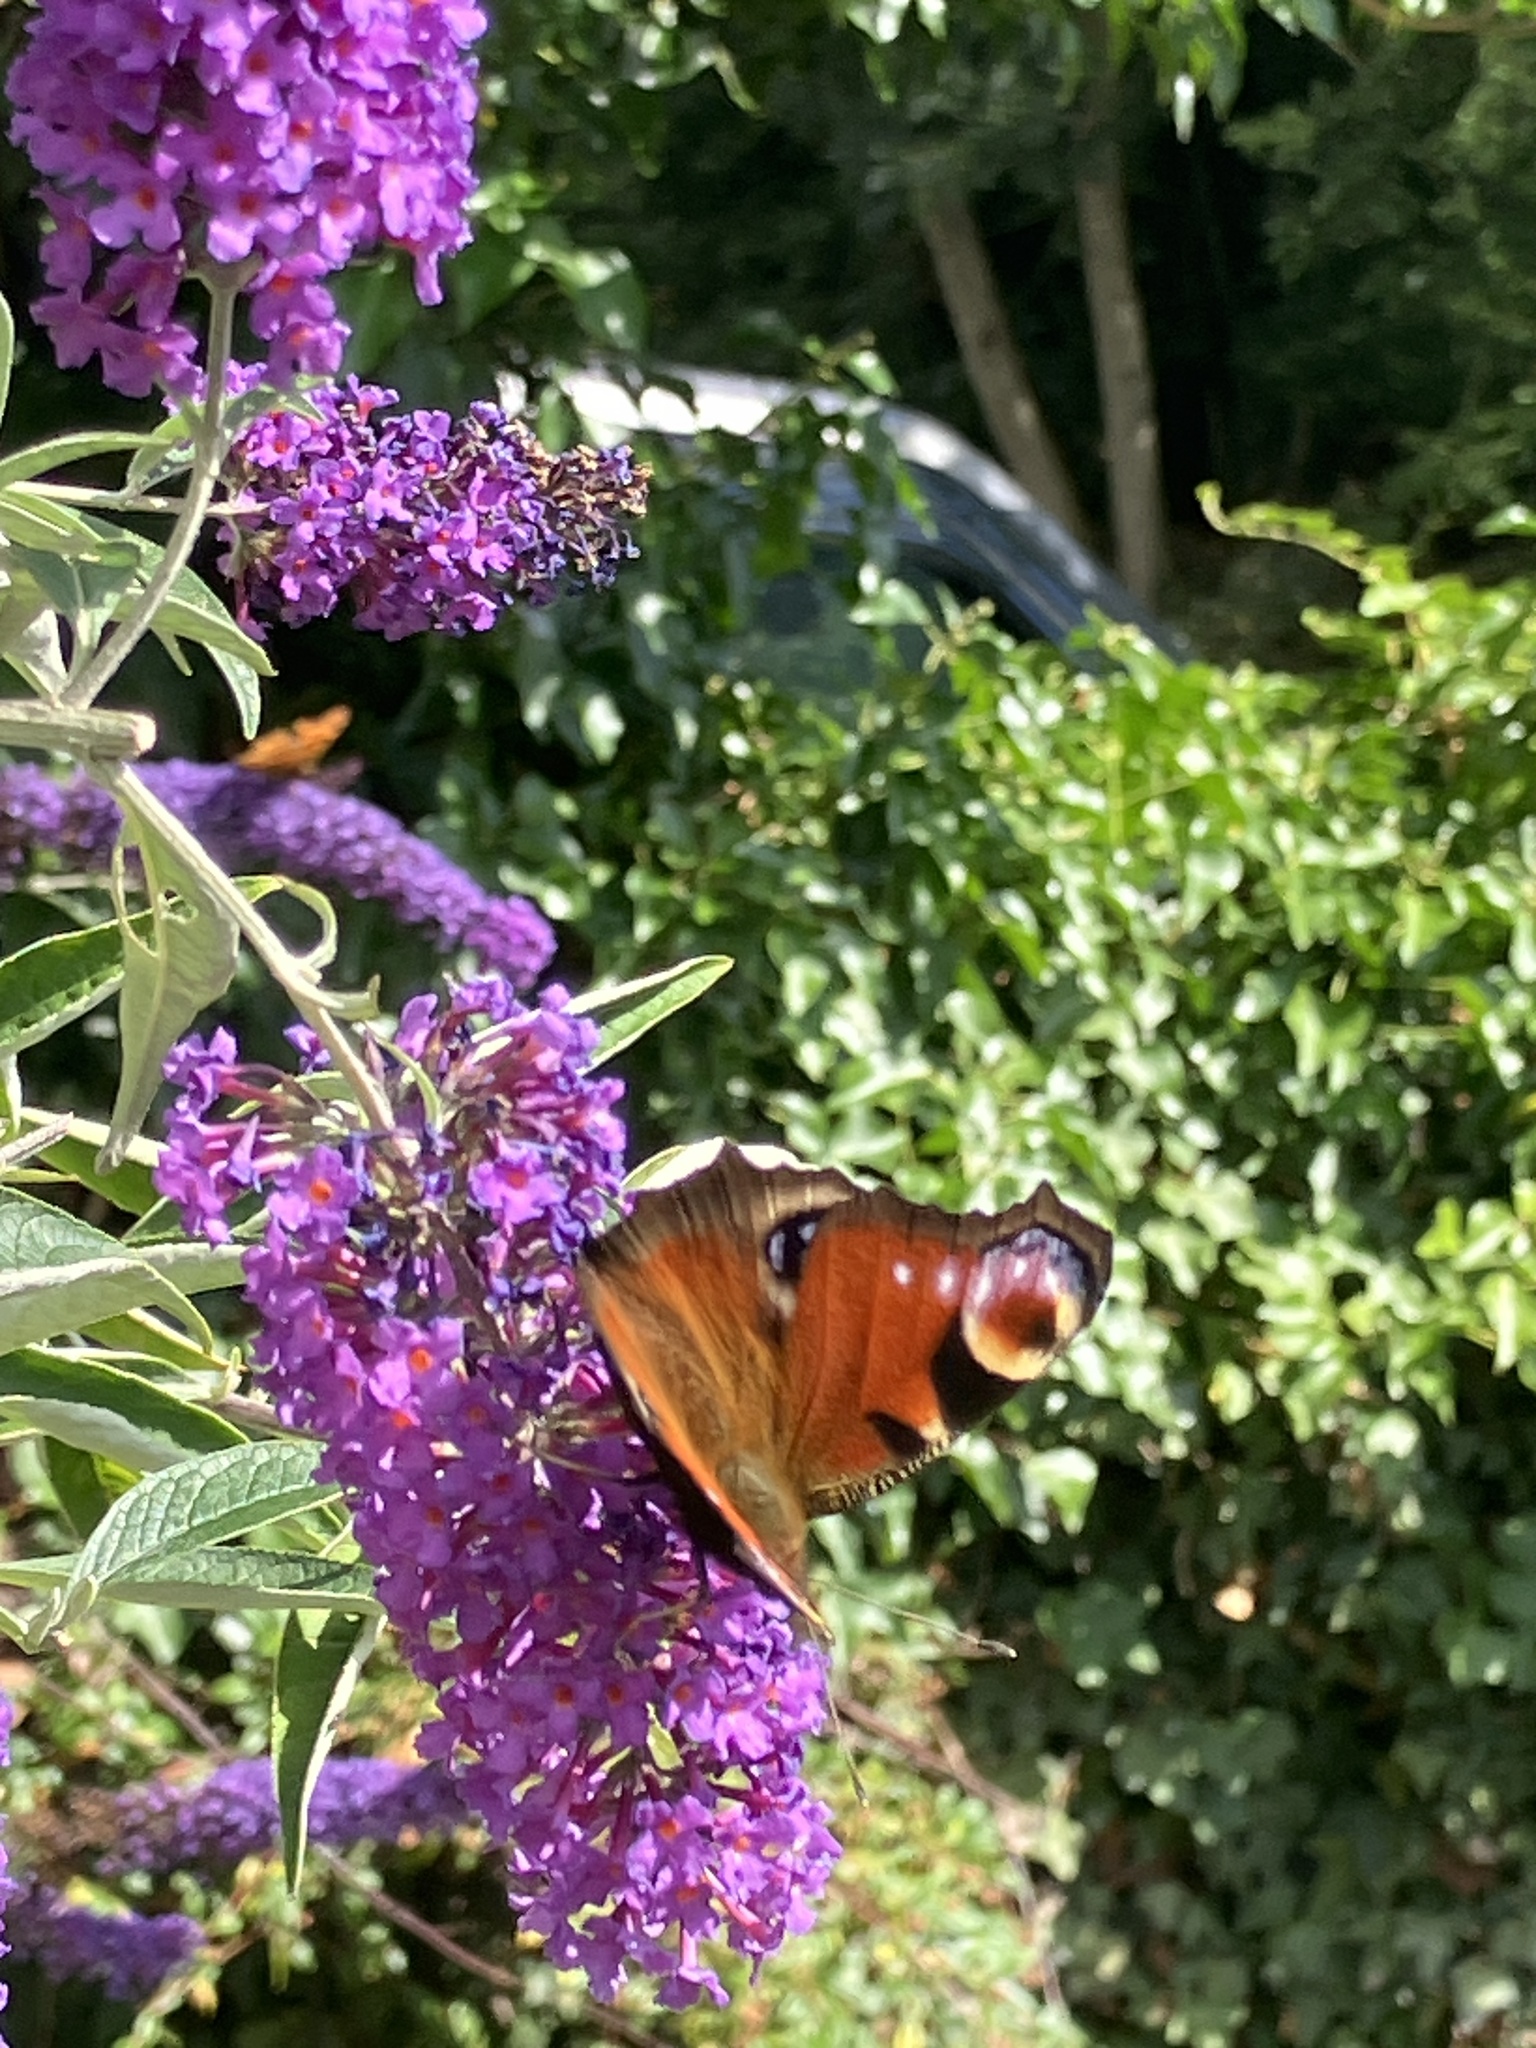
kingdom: Animalia
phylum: Arthropoda
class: Insecta
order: Lepidoptera
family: Nymphalidae
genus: Aglais
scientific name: Aglais io
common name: Peacock
